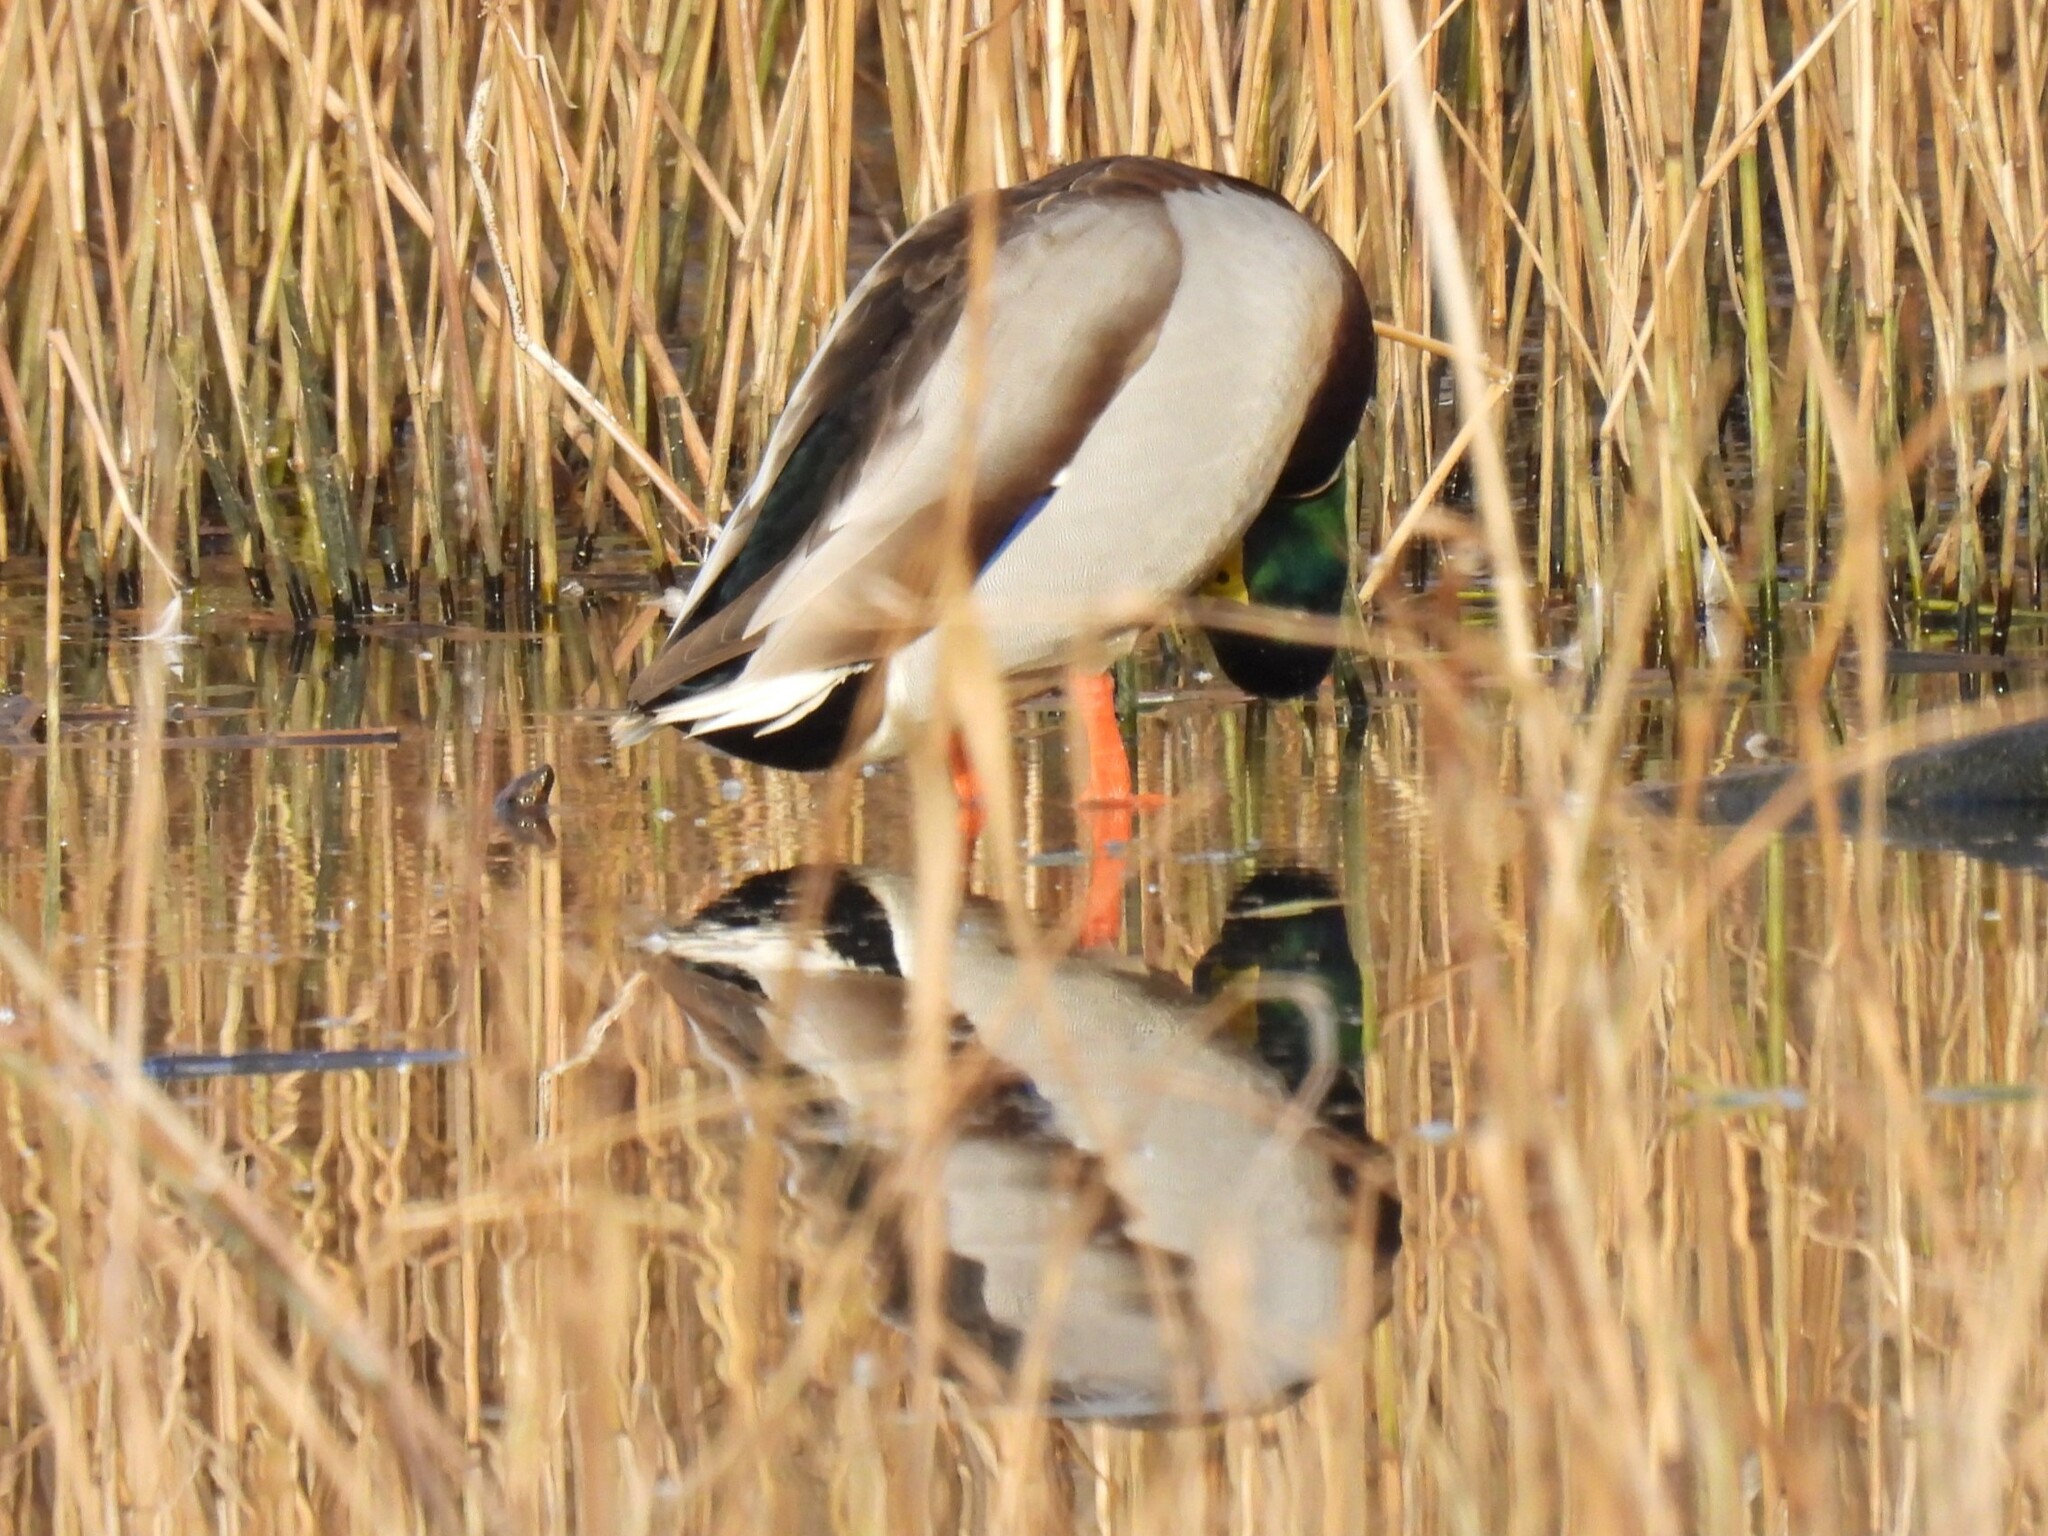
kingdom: Animalia
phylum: Chordata
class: Aves
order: Anseriformes
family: Anatidae
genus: Anas
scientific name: Anas platyrhynchos
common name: Mallard
